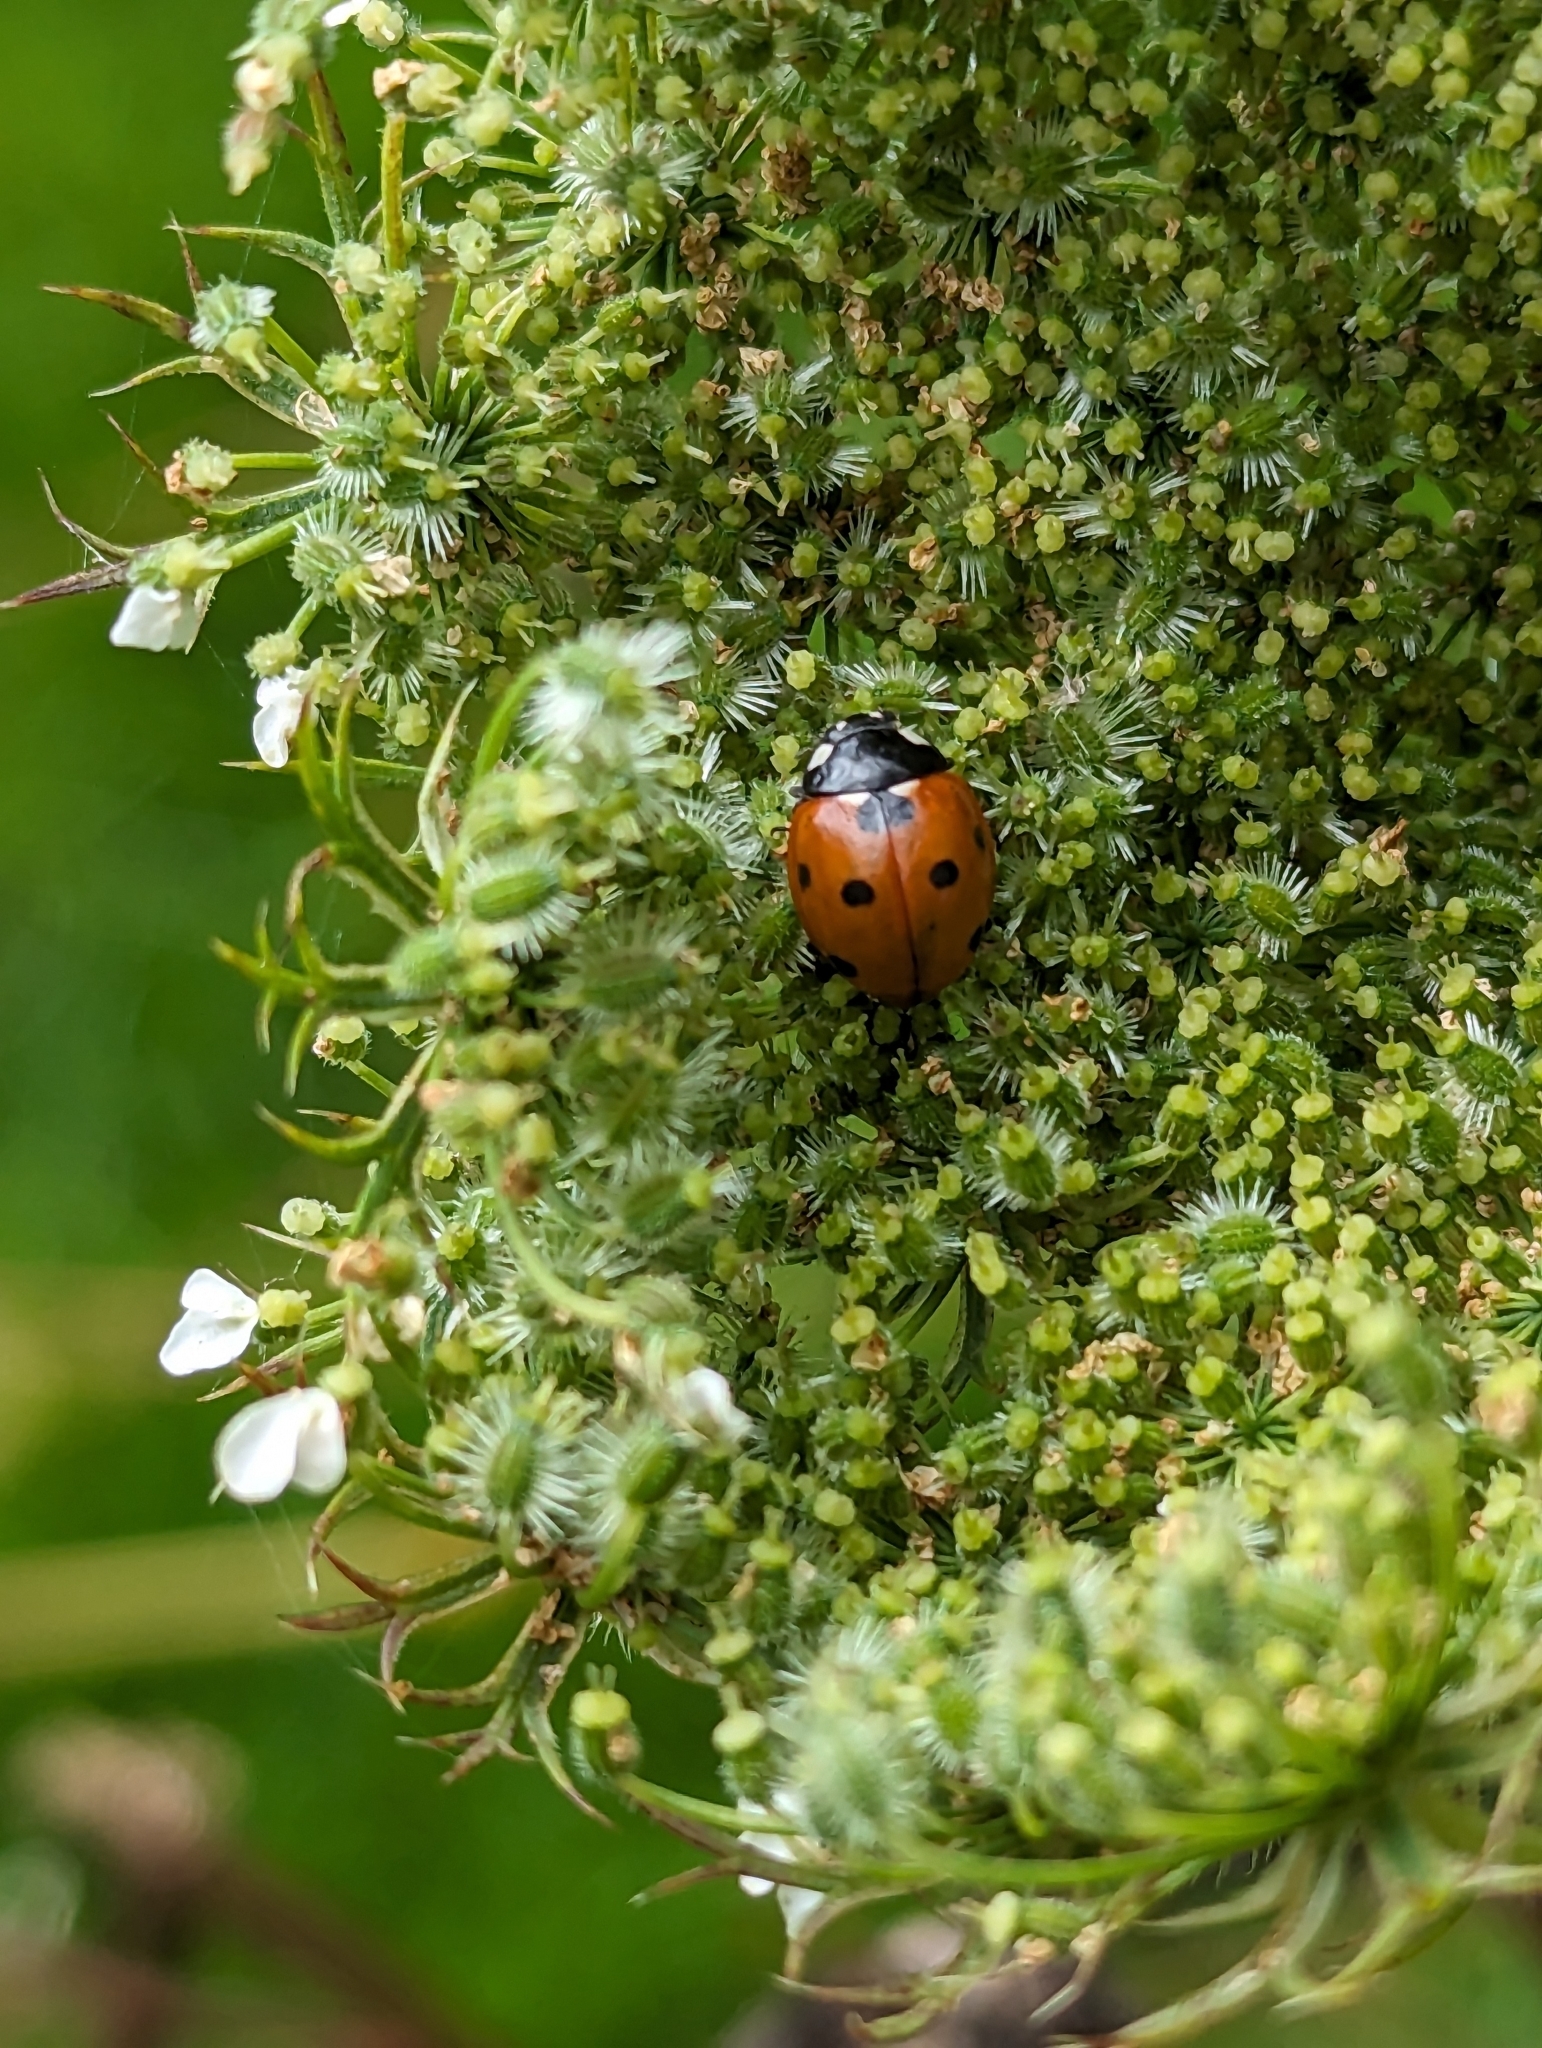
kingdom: Animalia
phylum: Arthropoda
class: Insecta
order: Coleoptera
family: Coccinellidae
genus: Coccinella
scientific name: Coccinella septempunctata
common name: Sevenspotted lady beetle
